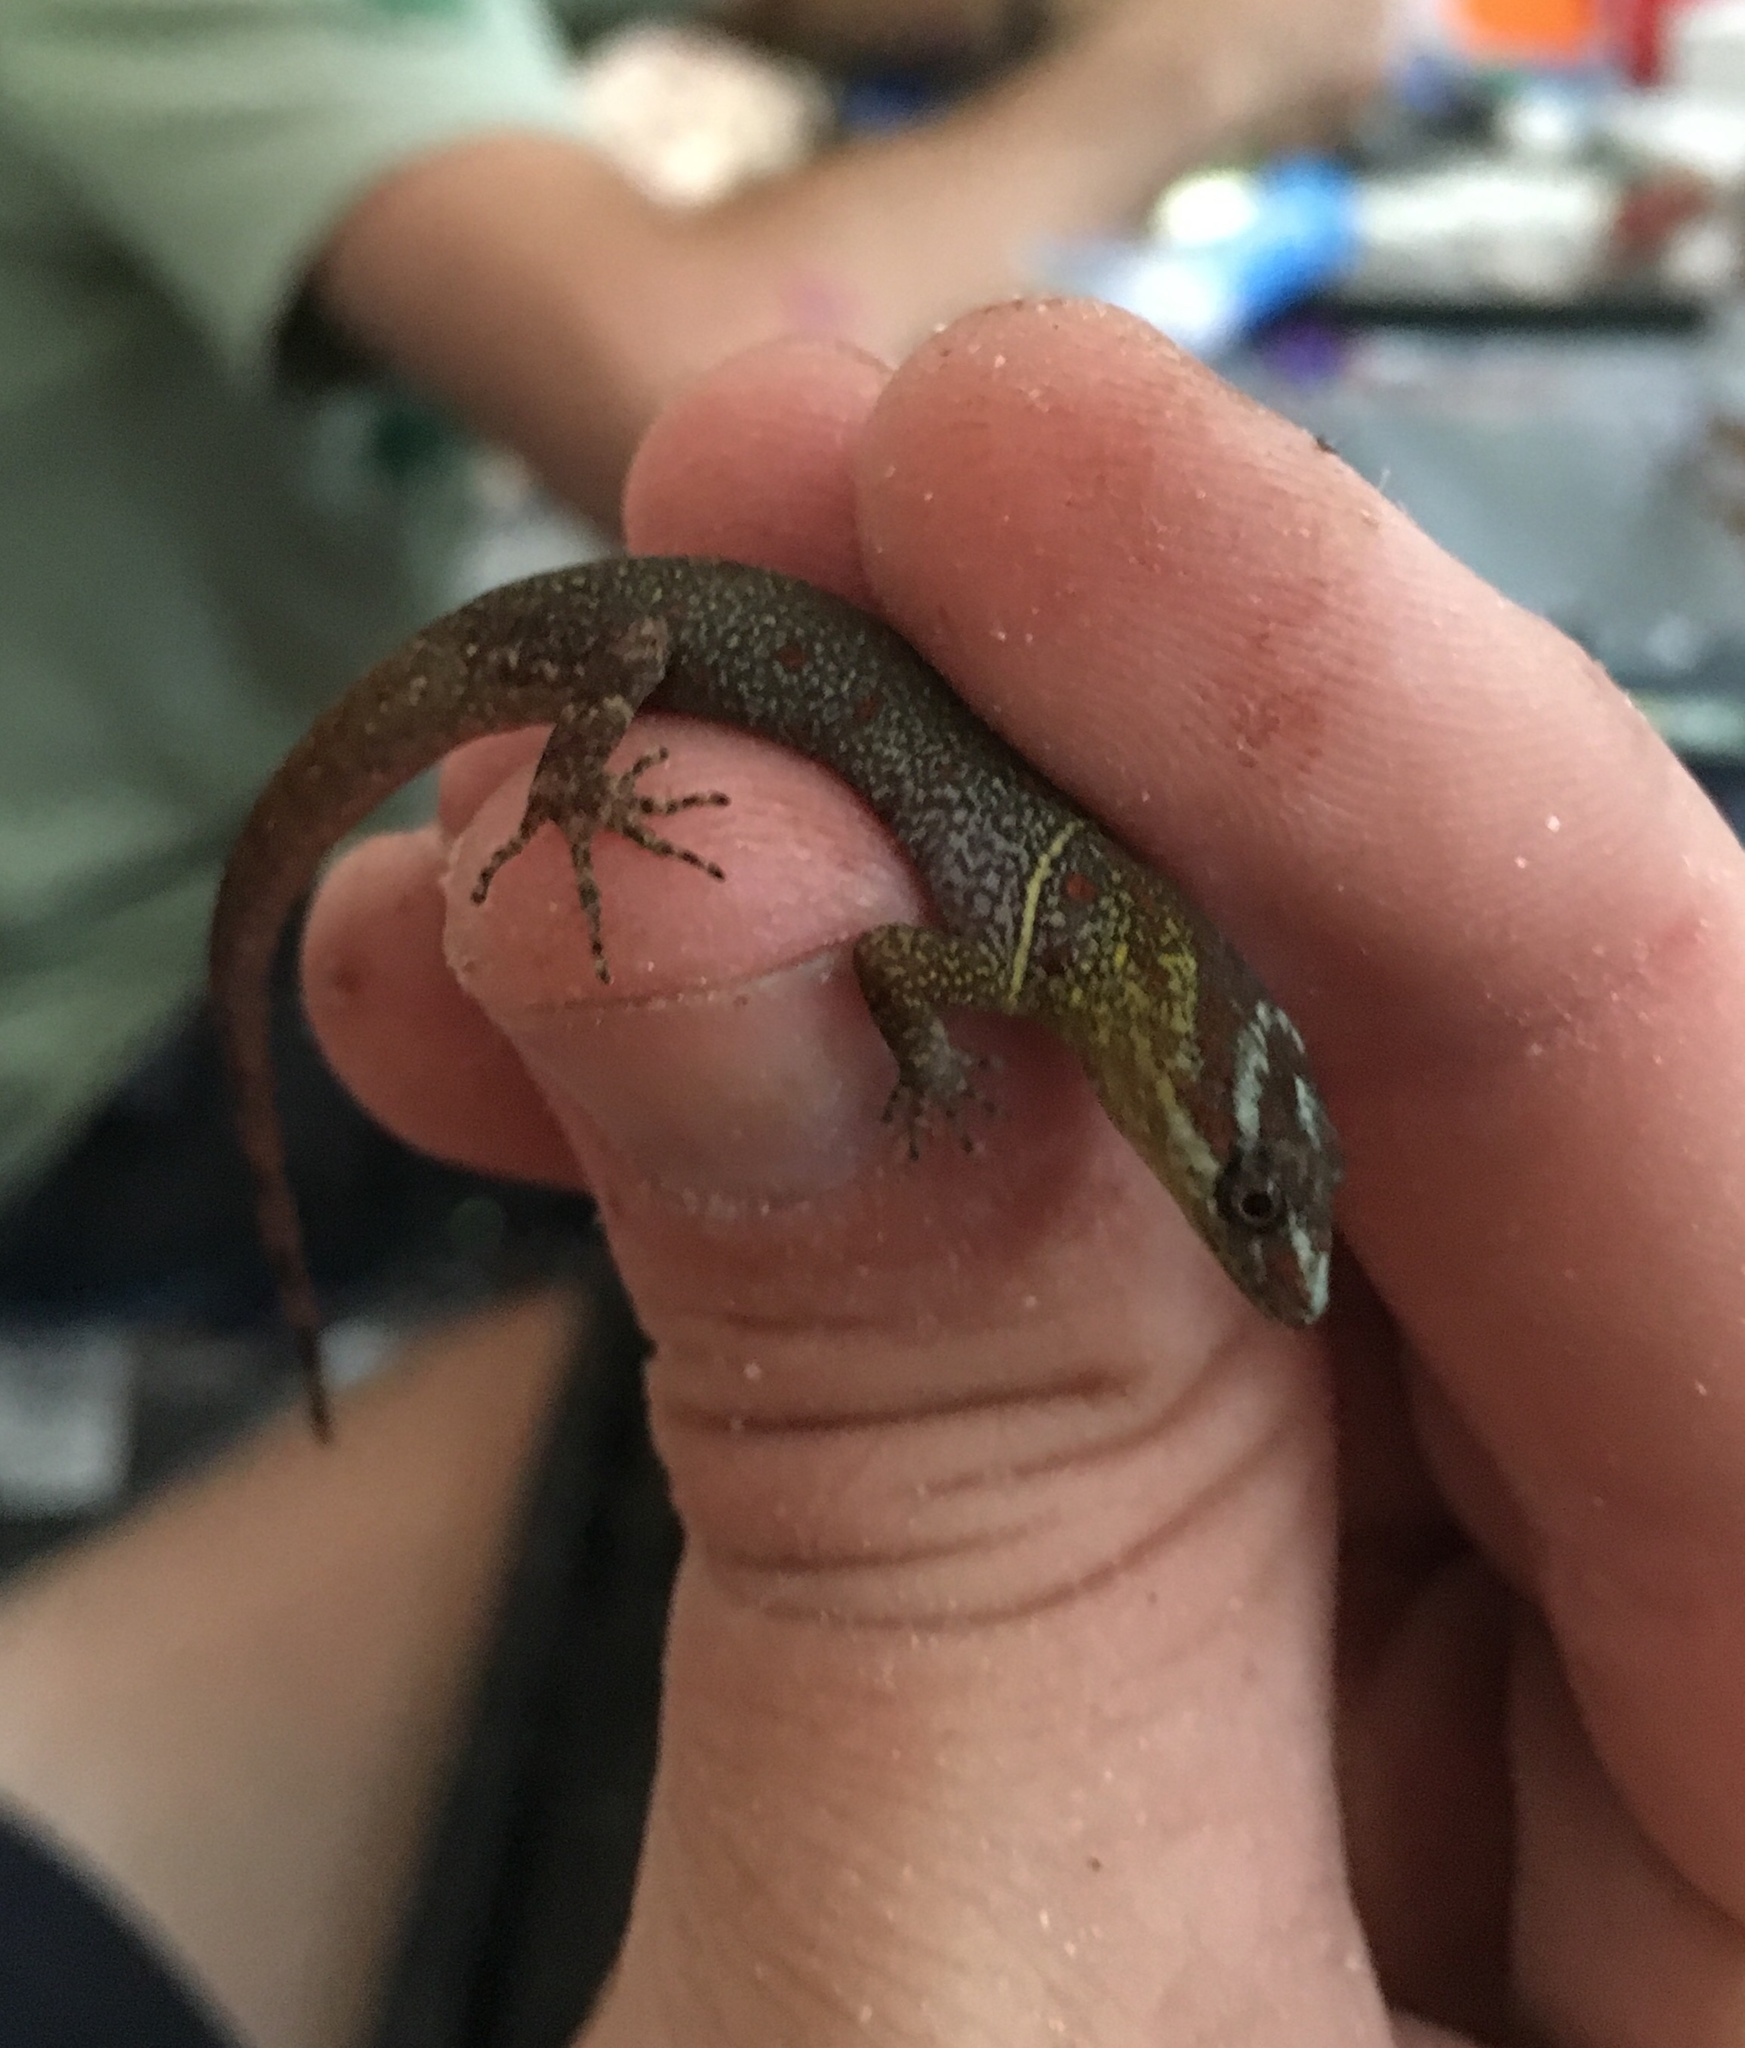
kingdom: Animalia
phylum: Chordata
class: Squamata
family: Sphaerodactylidae
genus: Gonatodes
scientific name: Gonatodes humeralis
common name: South american clawed gecko
